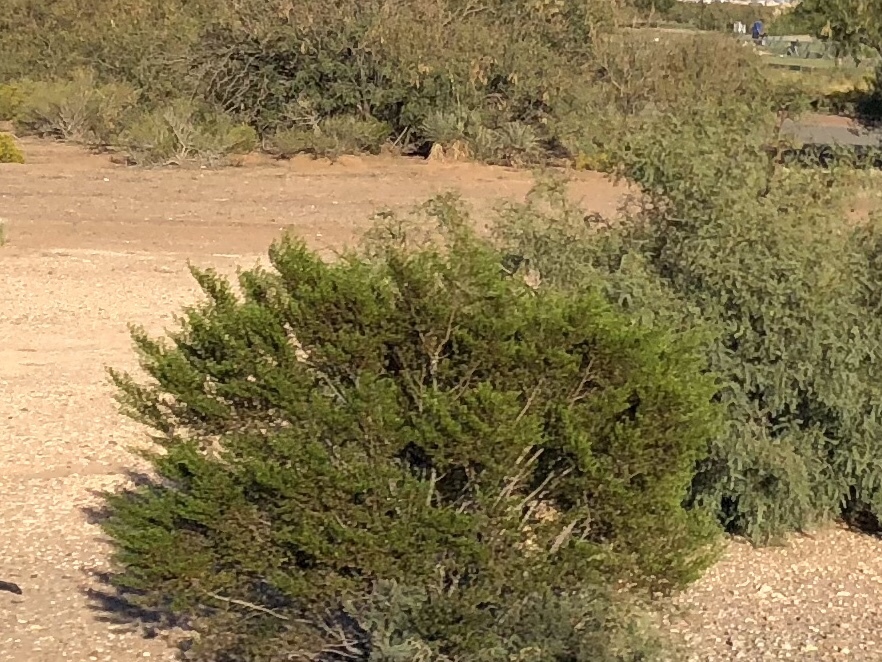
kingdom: Plantae
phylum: Tracheophyta
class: Magnoliopsida
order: Zygophyllales
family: Zygophyllaceae
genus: Larrea
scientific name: Larrea tridentata
